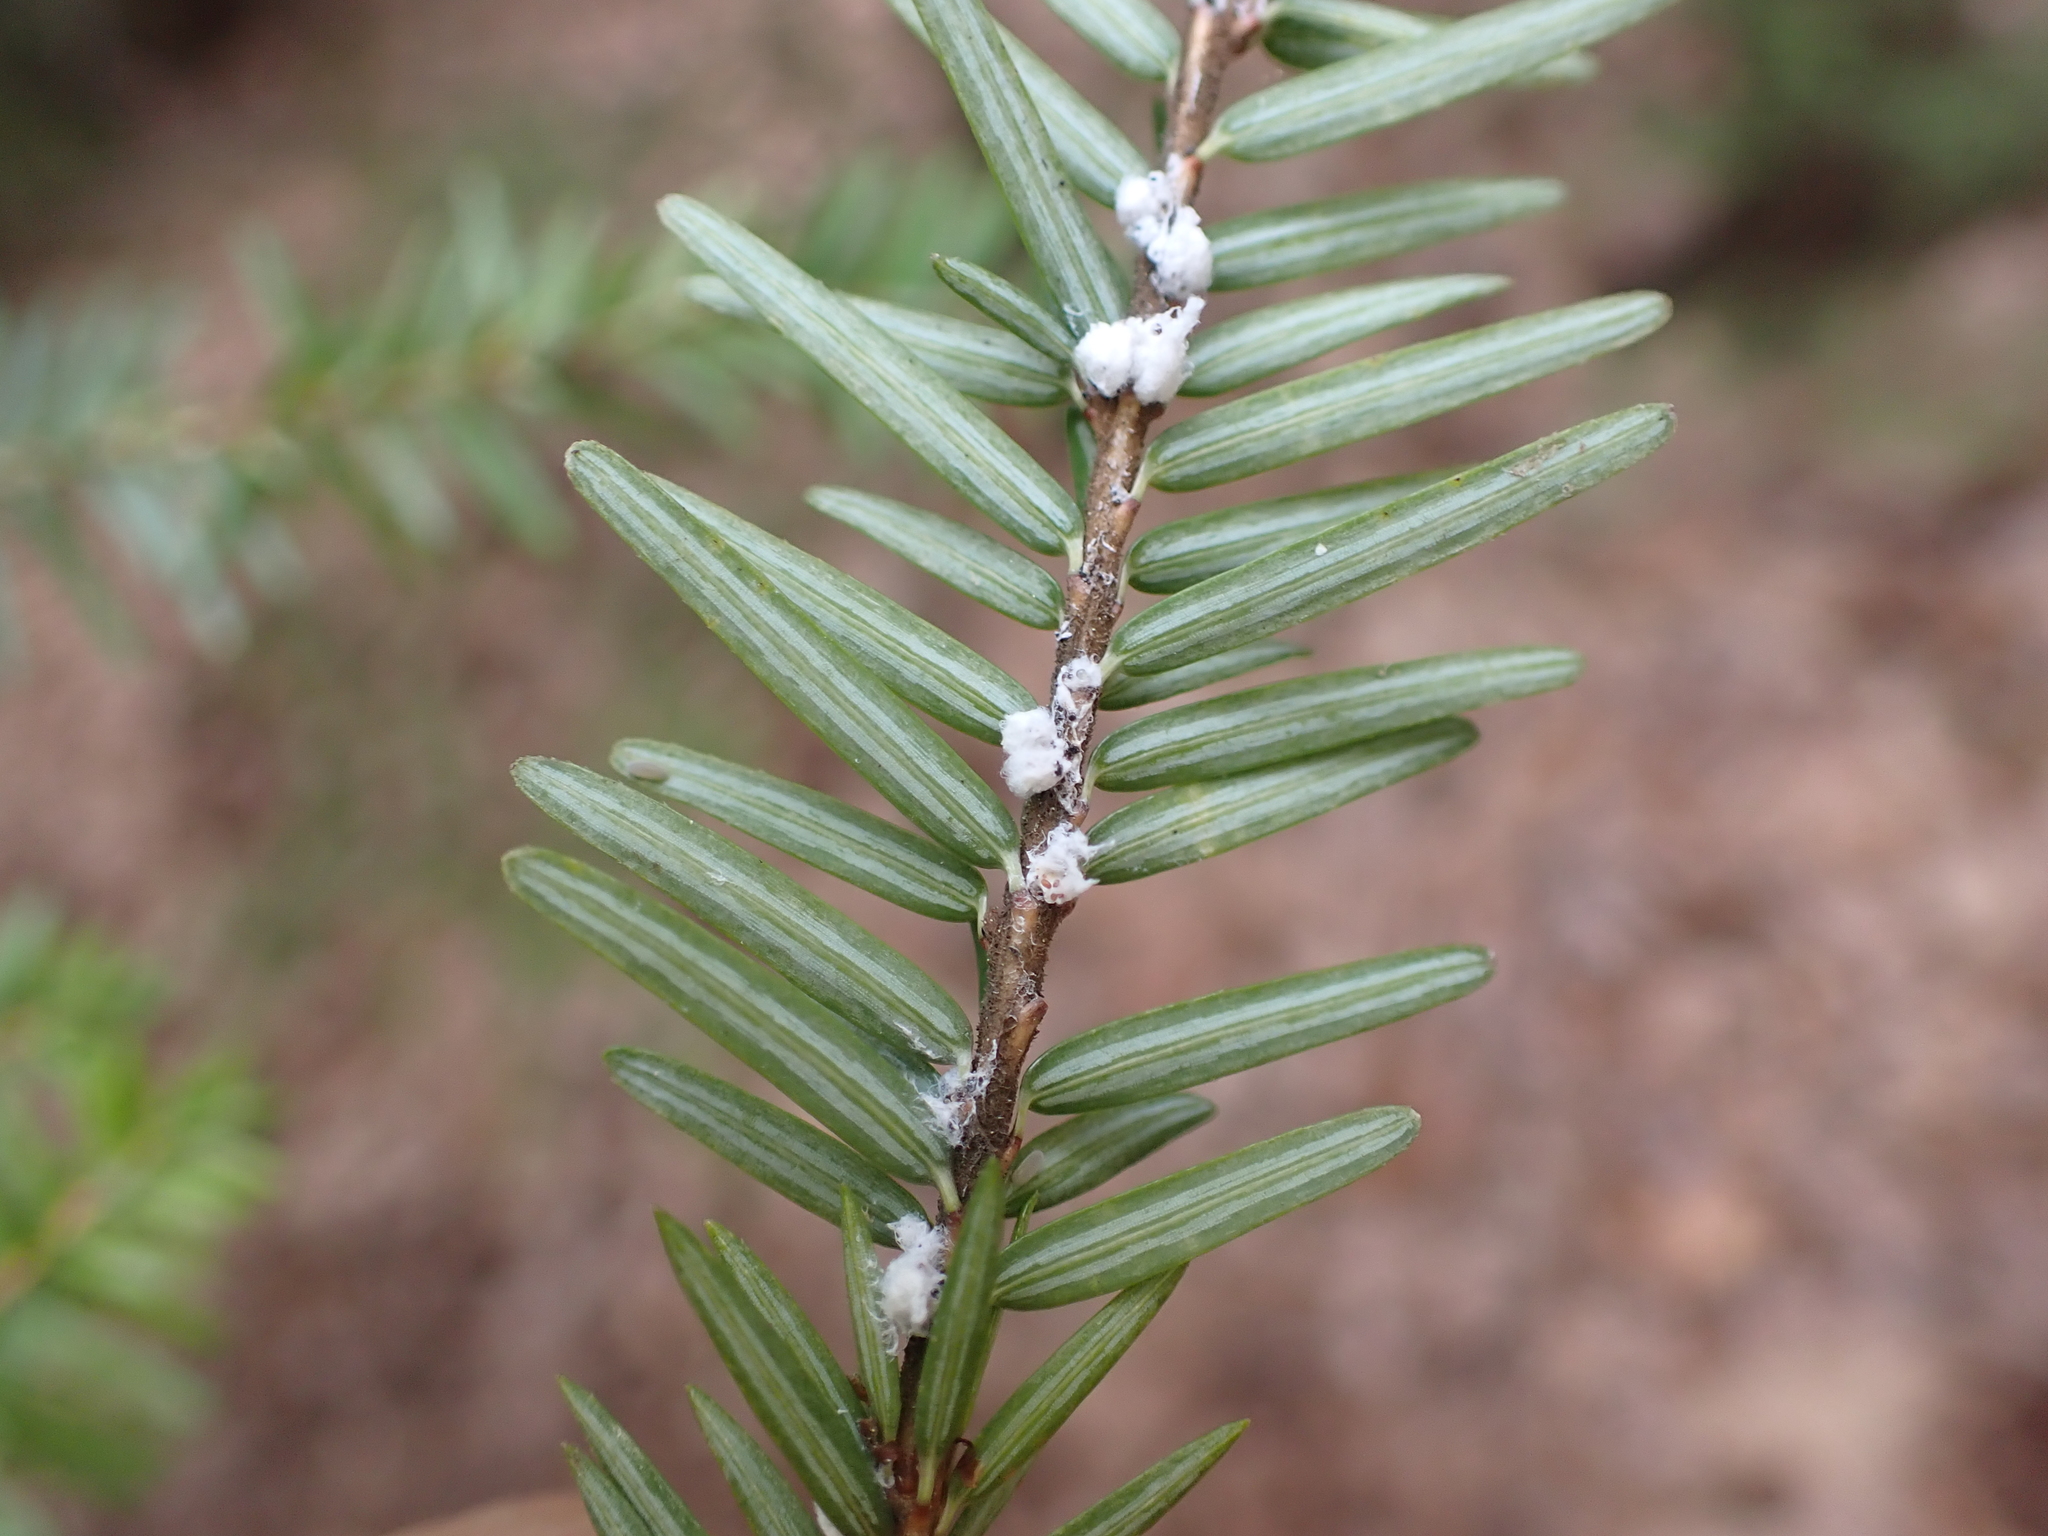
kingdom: Animalia
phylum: Arthropoda
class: Insecta
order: Hemiptera
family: Adelgidae
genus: Adelges
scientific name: Adelges tsugae
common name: Hemlock woolly adelgid
